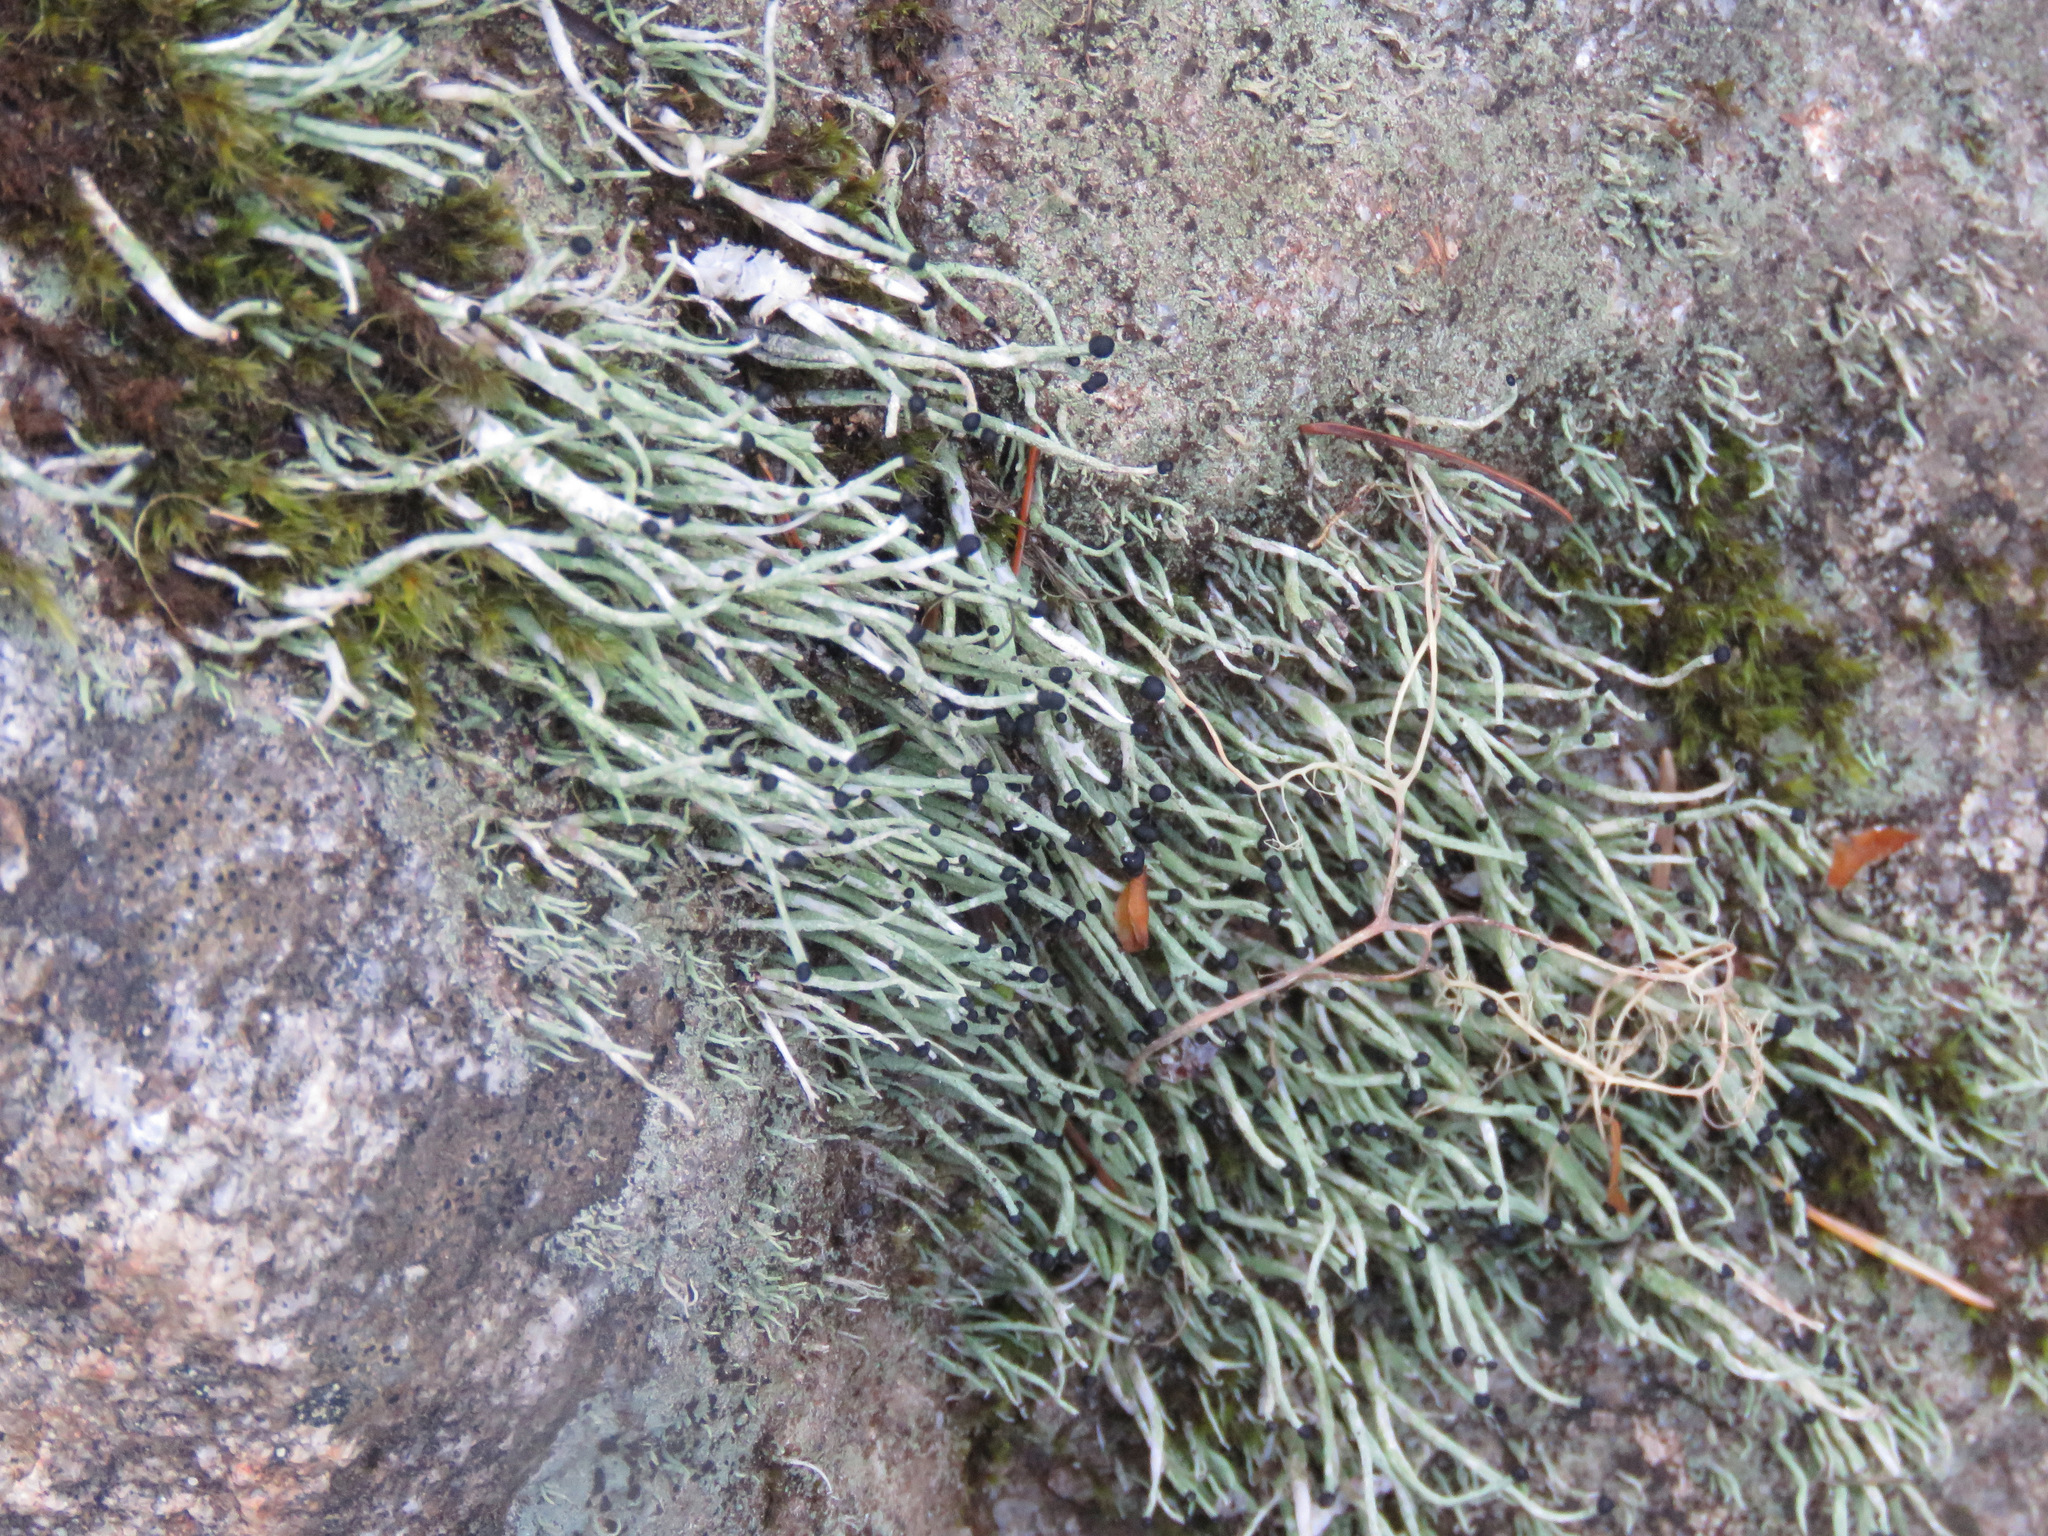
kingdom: Fungi
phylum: Ascomycota
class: Lecanoromycetes
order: Lecanorales
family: Cladoniaceae
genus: Pilophorus
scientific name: Pilophorus acicularis
